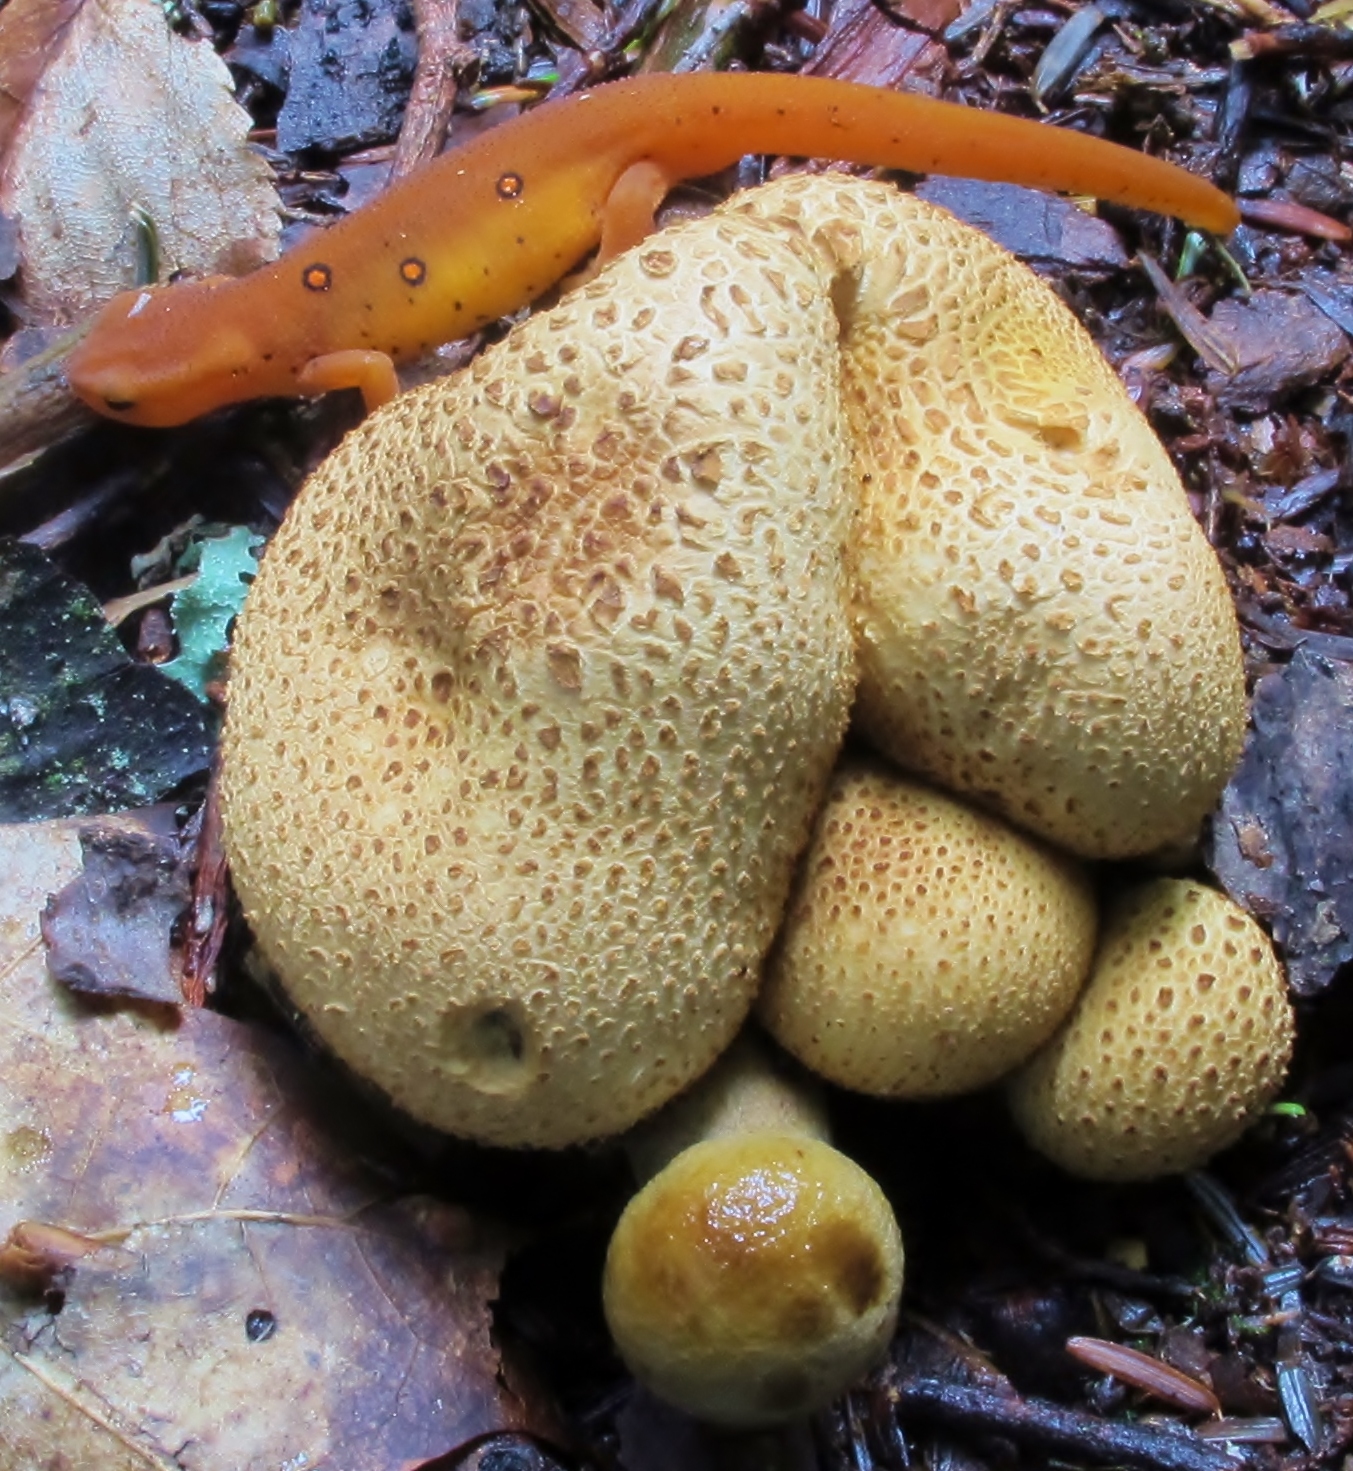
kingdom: Fungi
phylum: Basidiomycota
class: Agaricomycetes
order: Boletales
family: Boletaceae
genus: Pseudoboletus
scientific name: Pseudoboletus parasiticus
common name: Parasitic bolete
